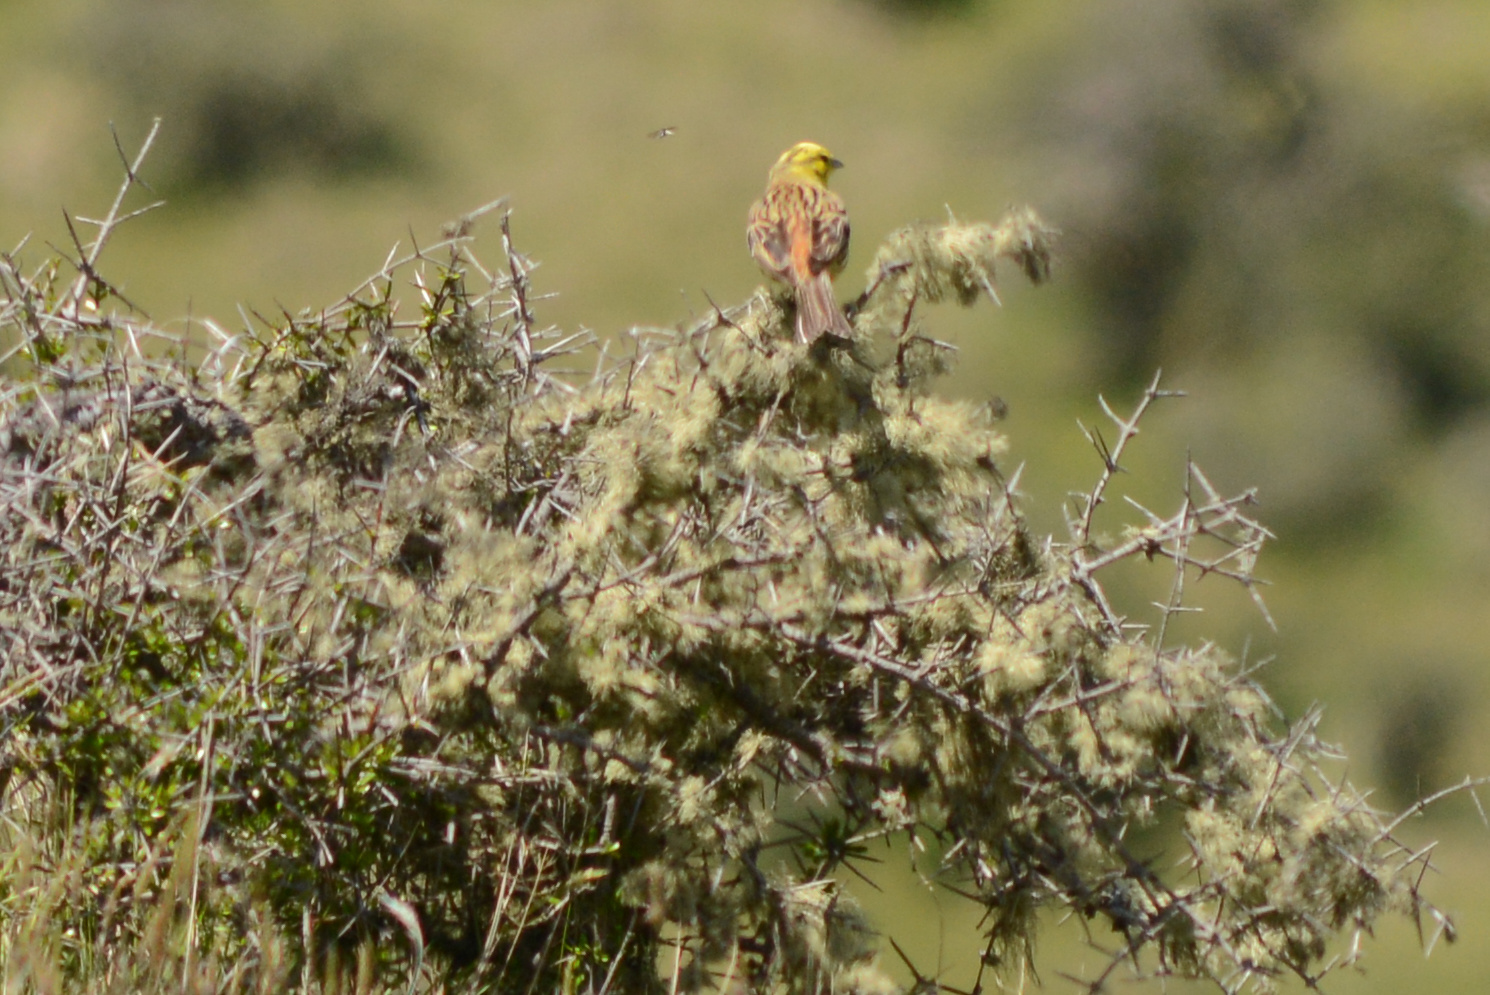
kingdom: Animalia
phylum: Chordata
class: Aves
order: Passeriformes
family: Emberizidae
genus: Emberiza
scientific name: Emberiza citrinella
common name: Yellowhammer
